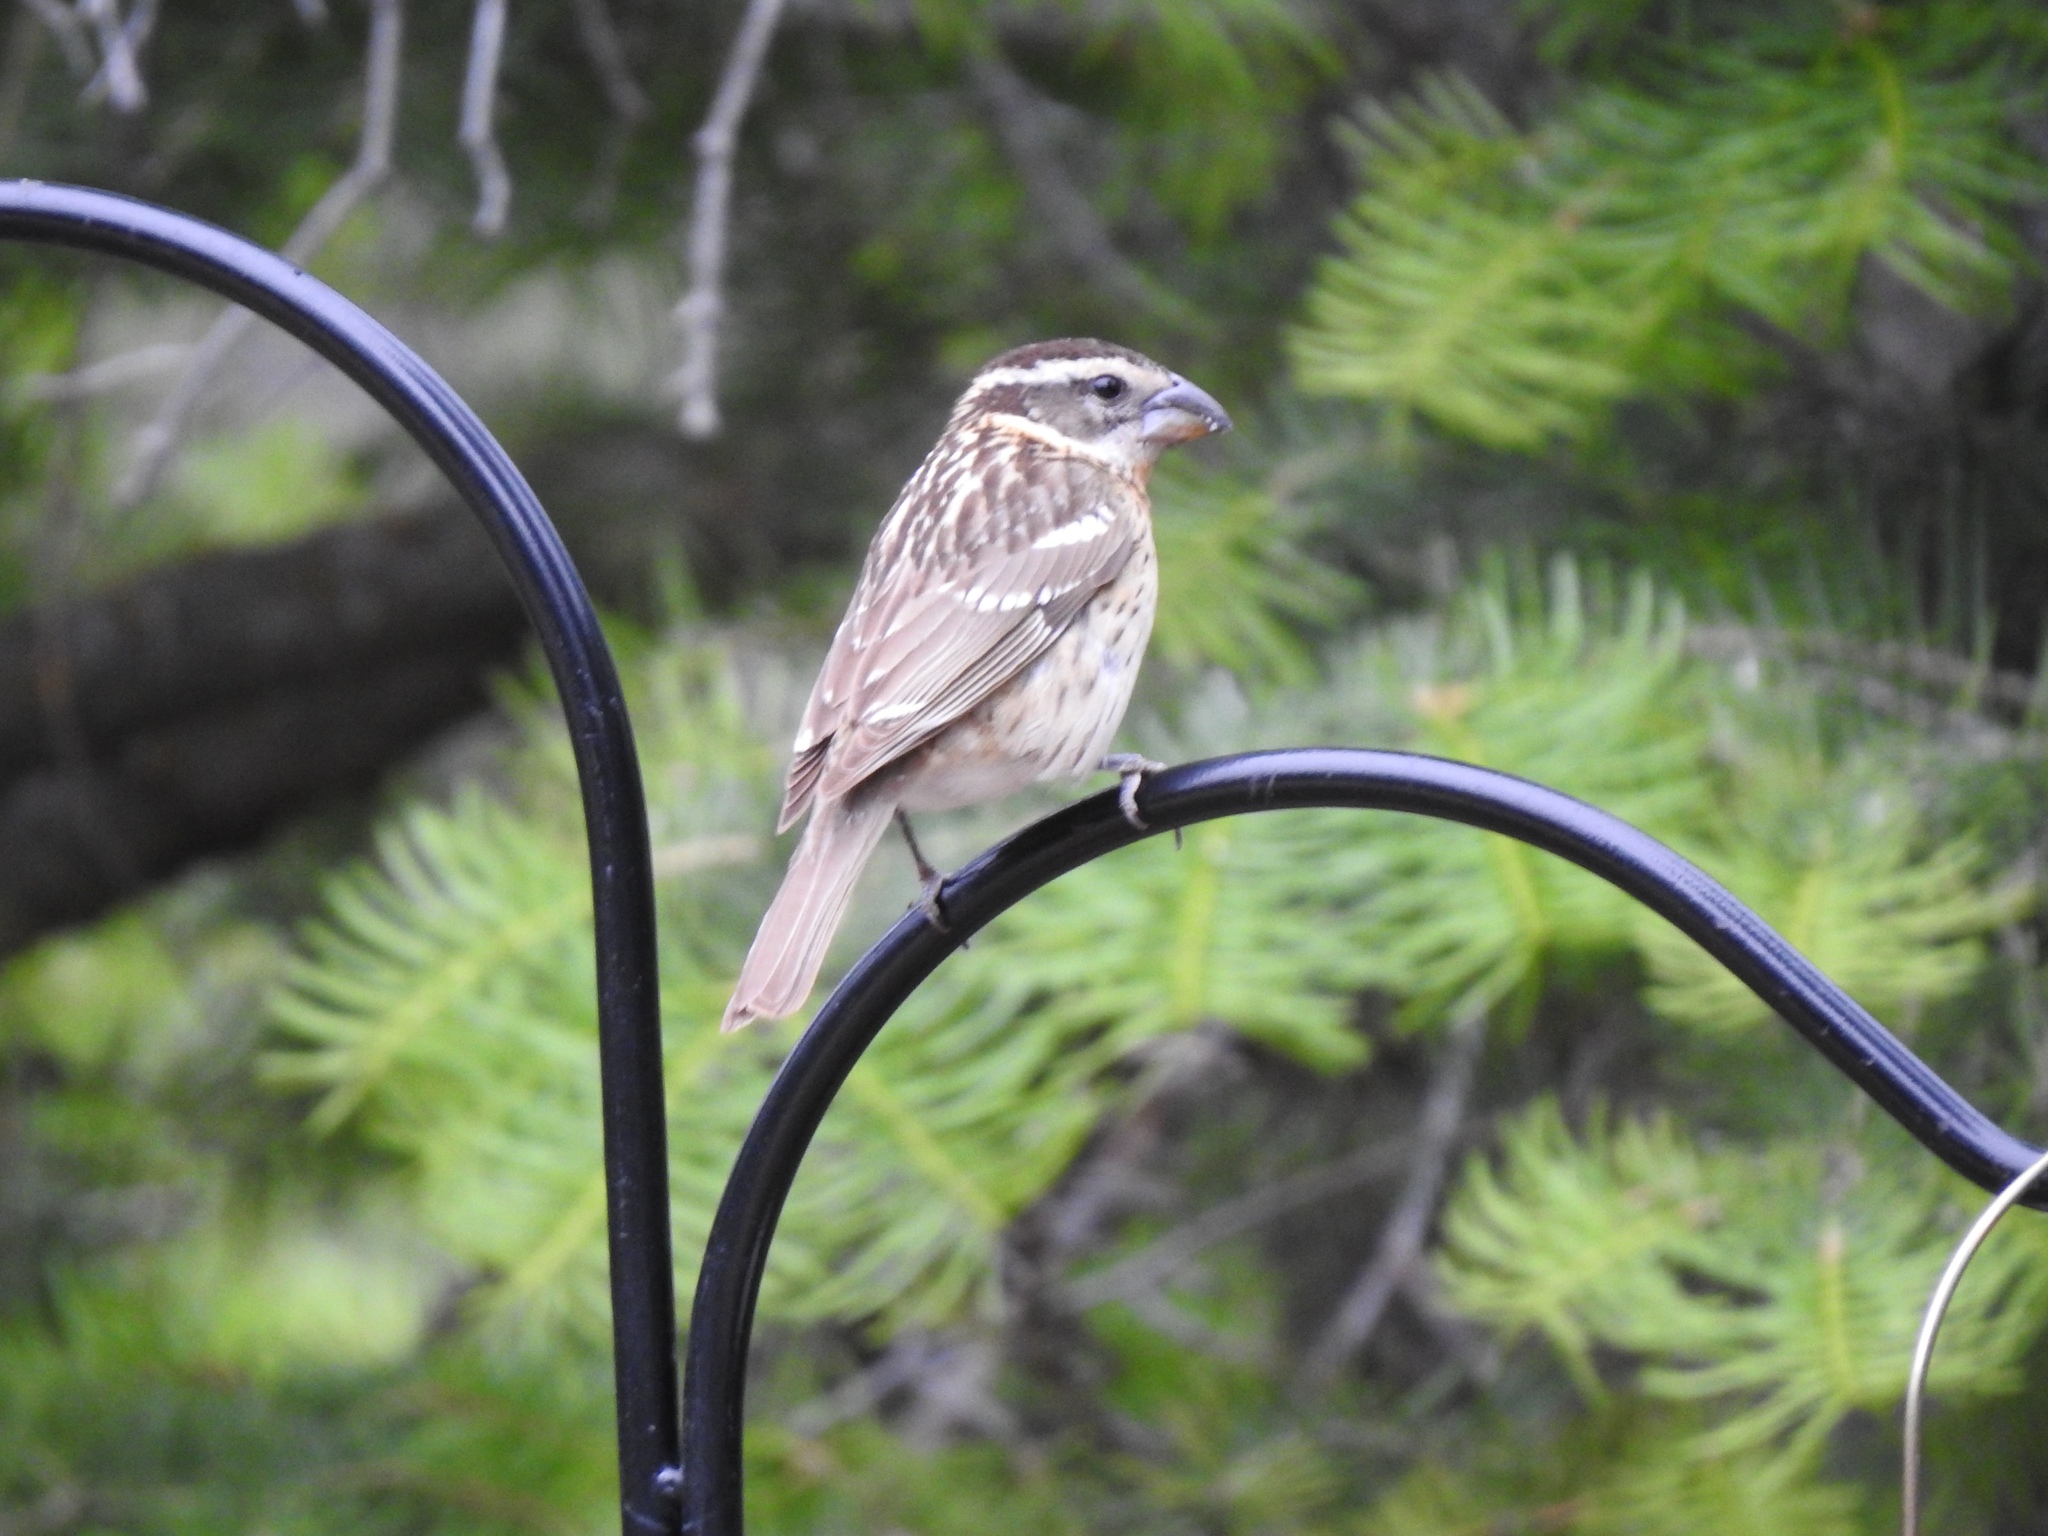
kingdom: Animalia
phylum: Chordata
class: Aves
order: Passeriformes
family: Cardinalidae
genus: Pheucticus
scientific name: Pheucticus melanocephalus
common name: Black-headed grosbeak
